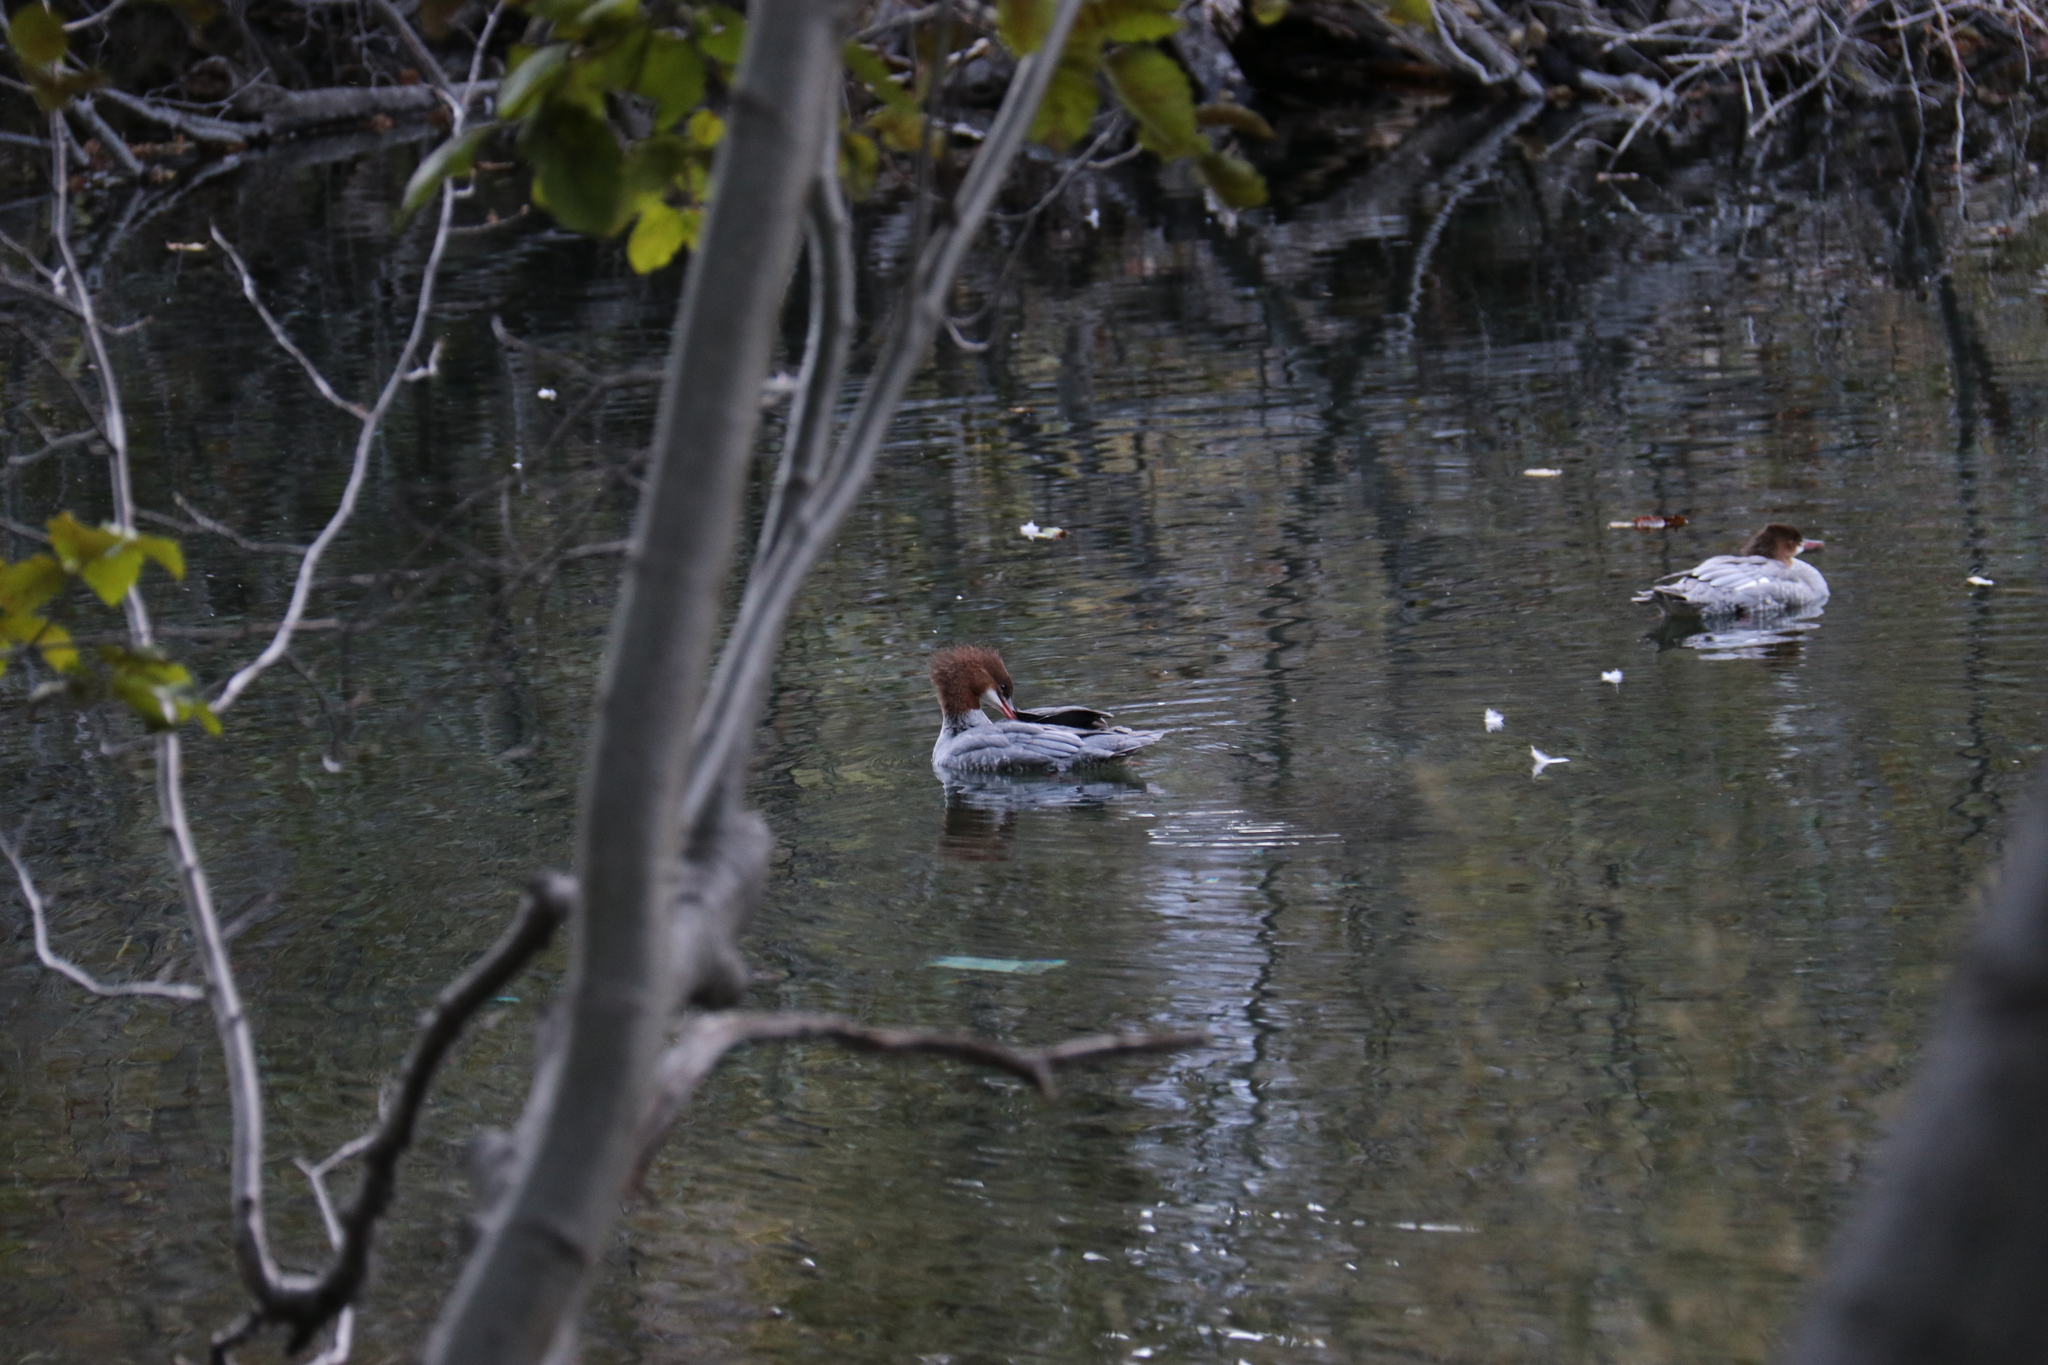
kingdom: Animalia
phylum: Chordata
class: Aves
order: Anseriformes
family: Anatidae
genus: Mergus
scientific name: Mergus merganser
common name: Common merganser
